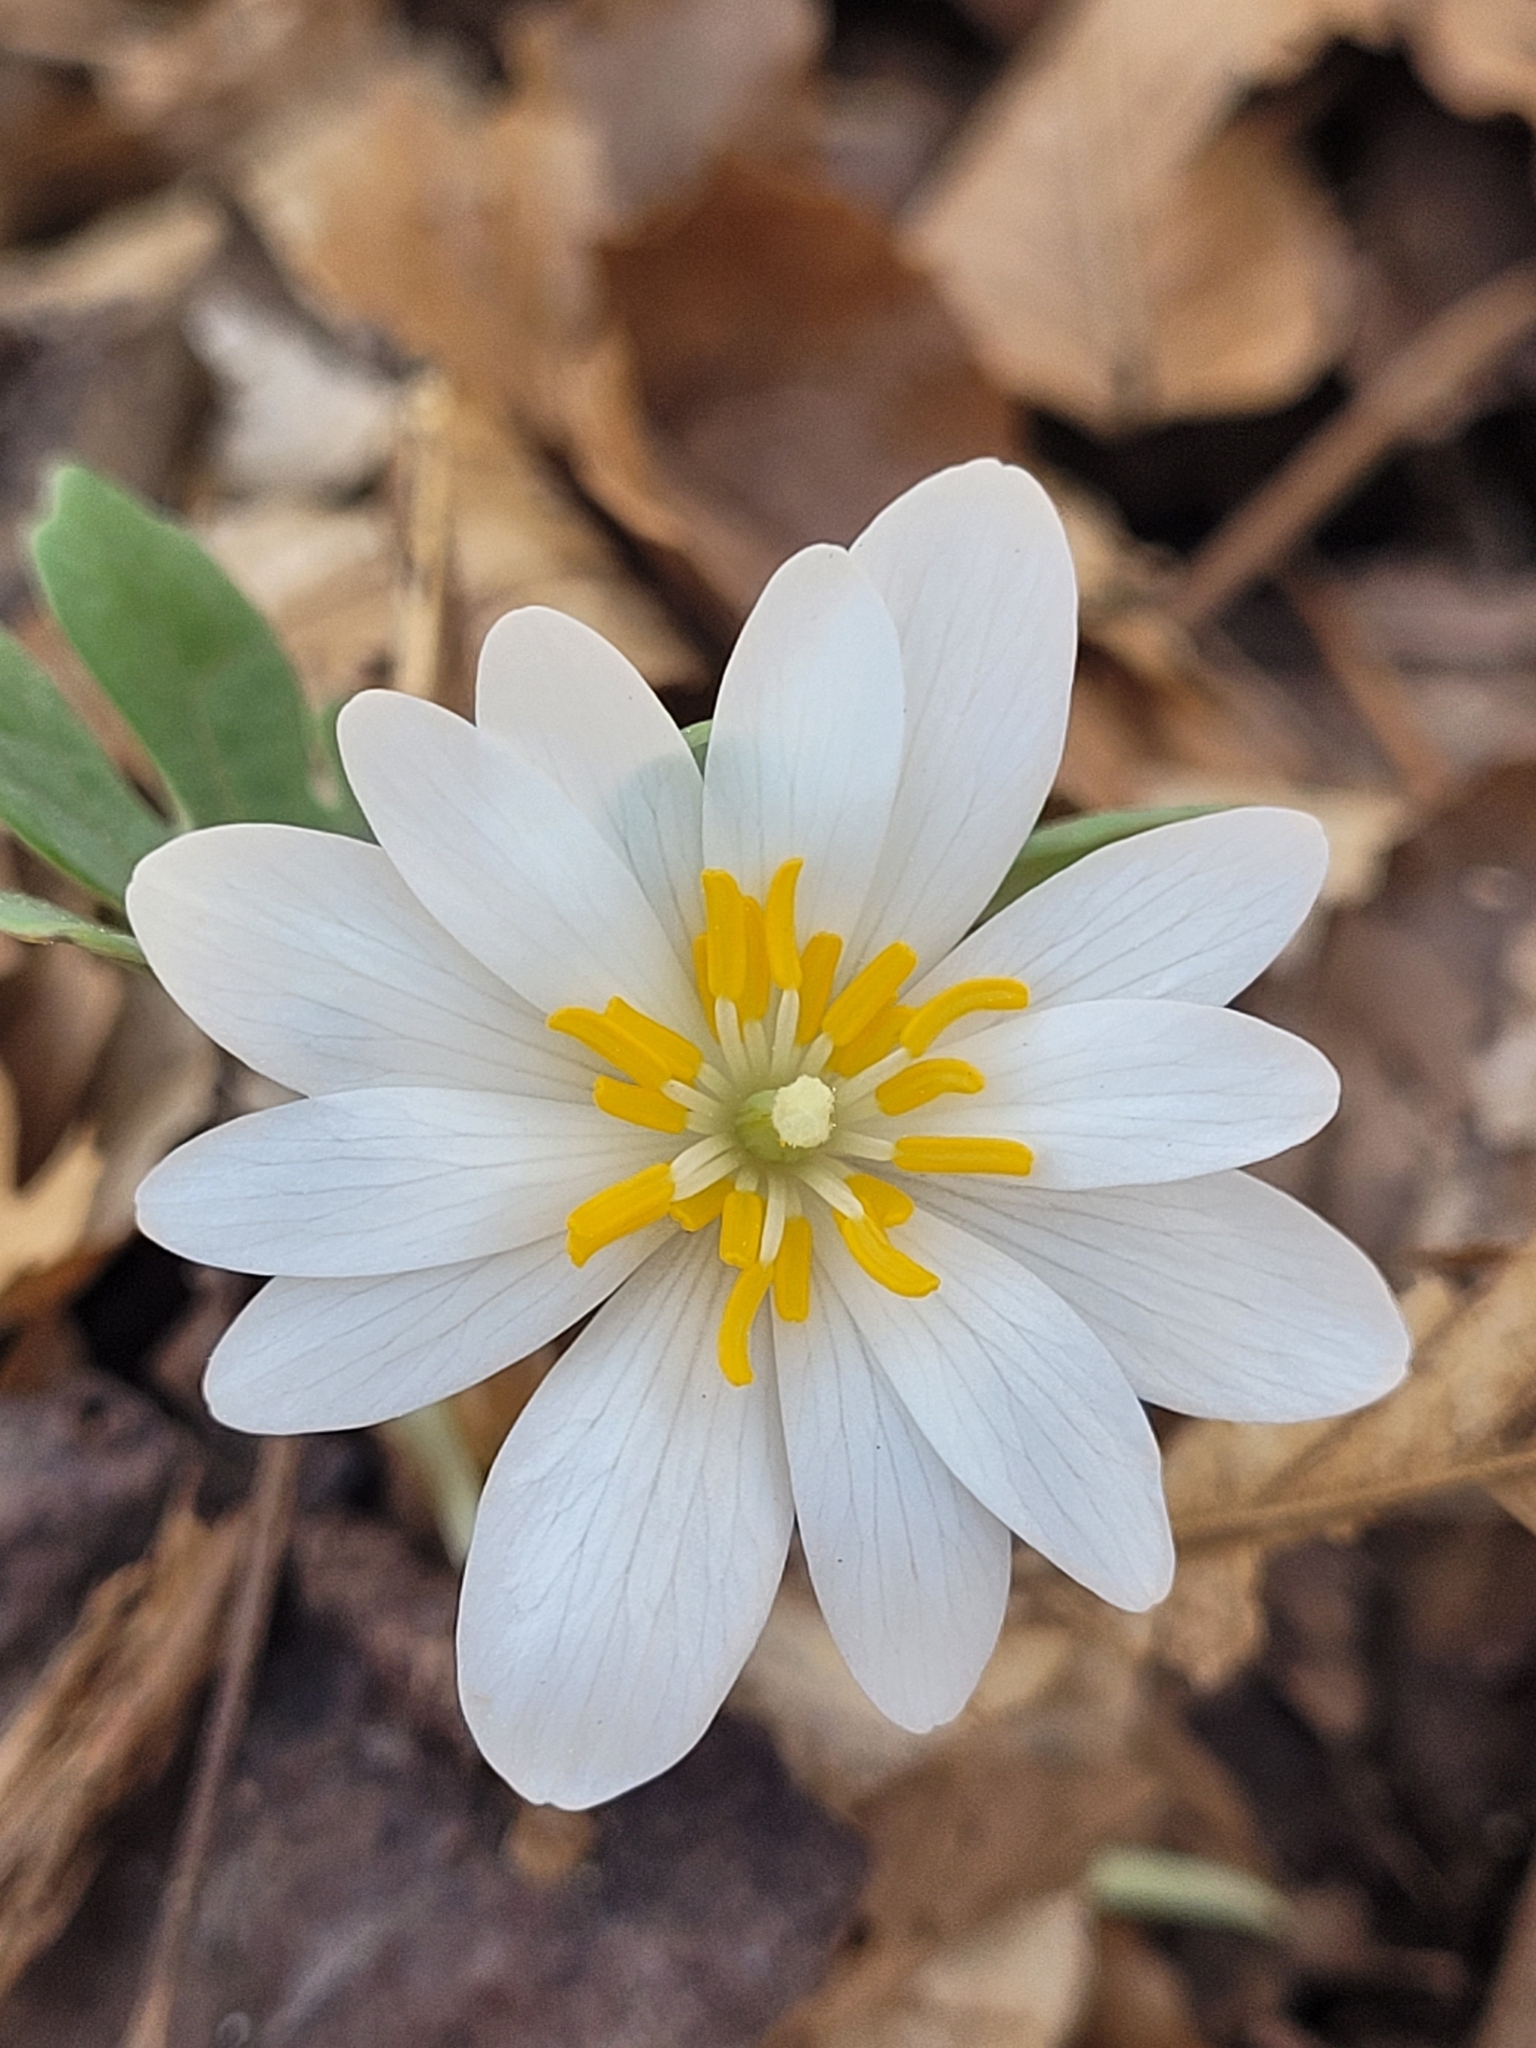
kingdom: Plantae
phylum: Tracheophyta
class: Magnoliopsida
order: Ranunculales
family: Papaveraceae
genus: Sanguinaria
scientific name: Sanguinaria canadensis
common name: Bloodroot
